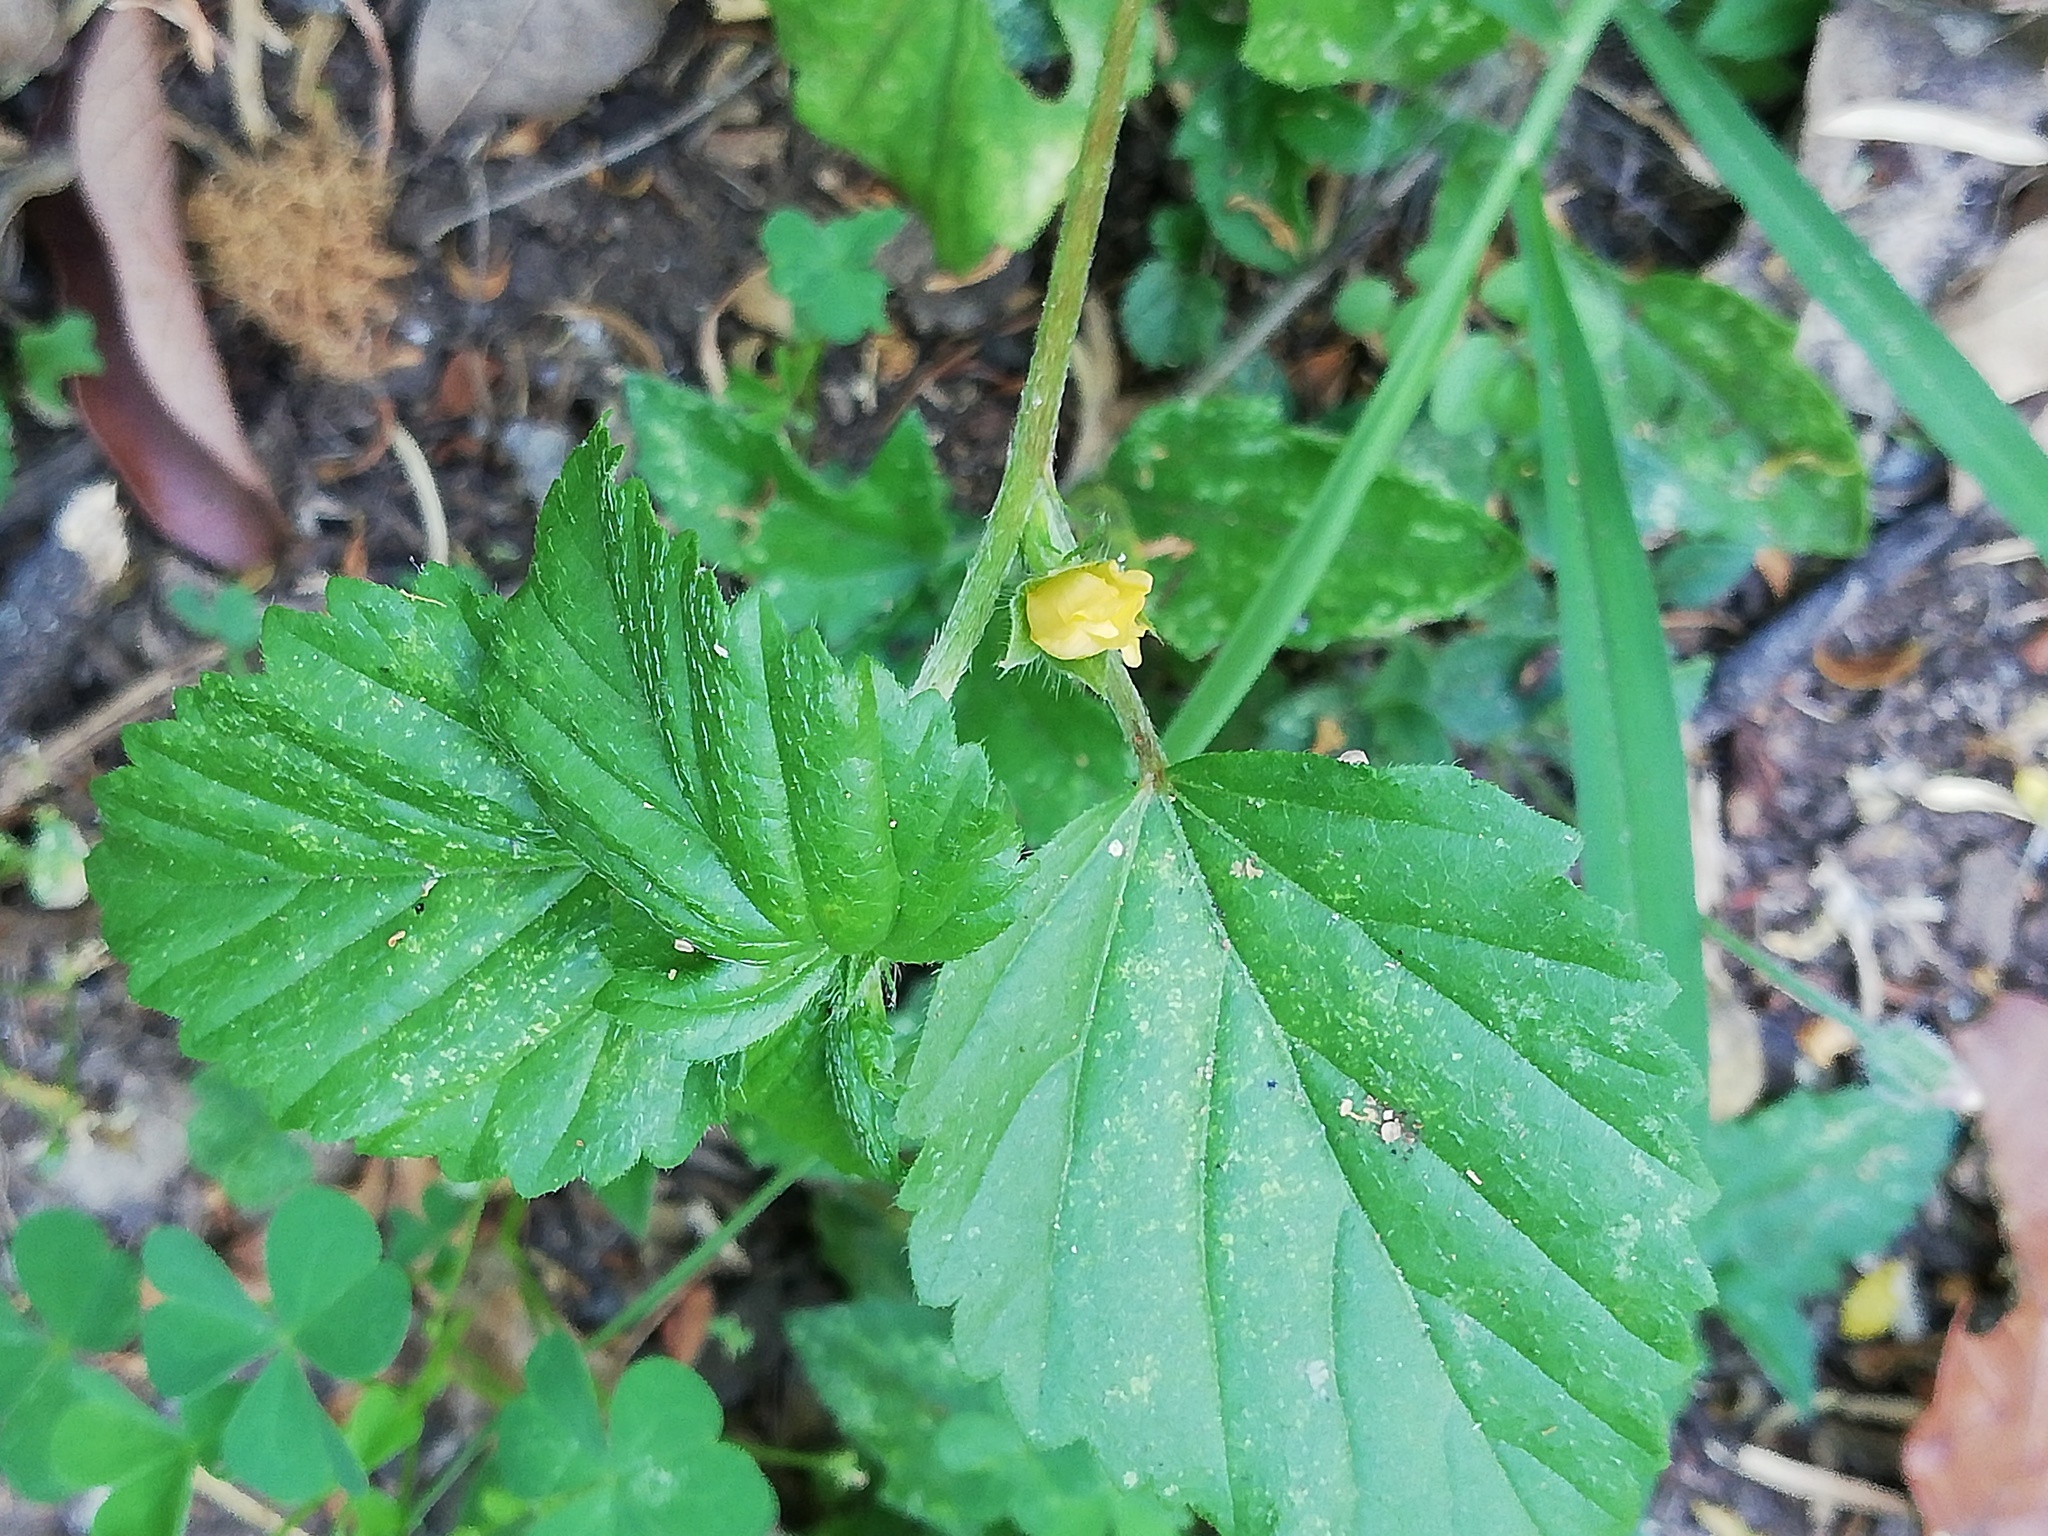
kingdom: Plantae
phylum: Tracheophyta
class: Magnoliopsida
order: Malvales
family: Malvaceae
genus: Malvastrum
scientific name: Malvastrum coromandelianum
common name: Threelobe false mallow
